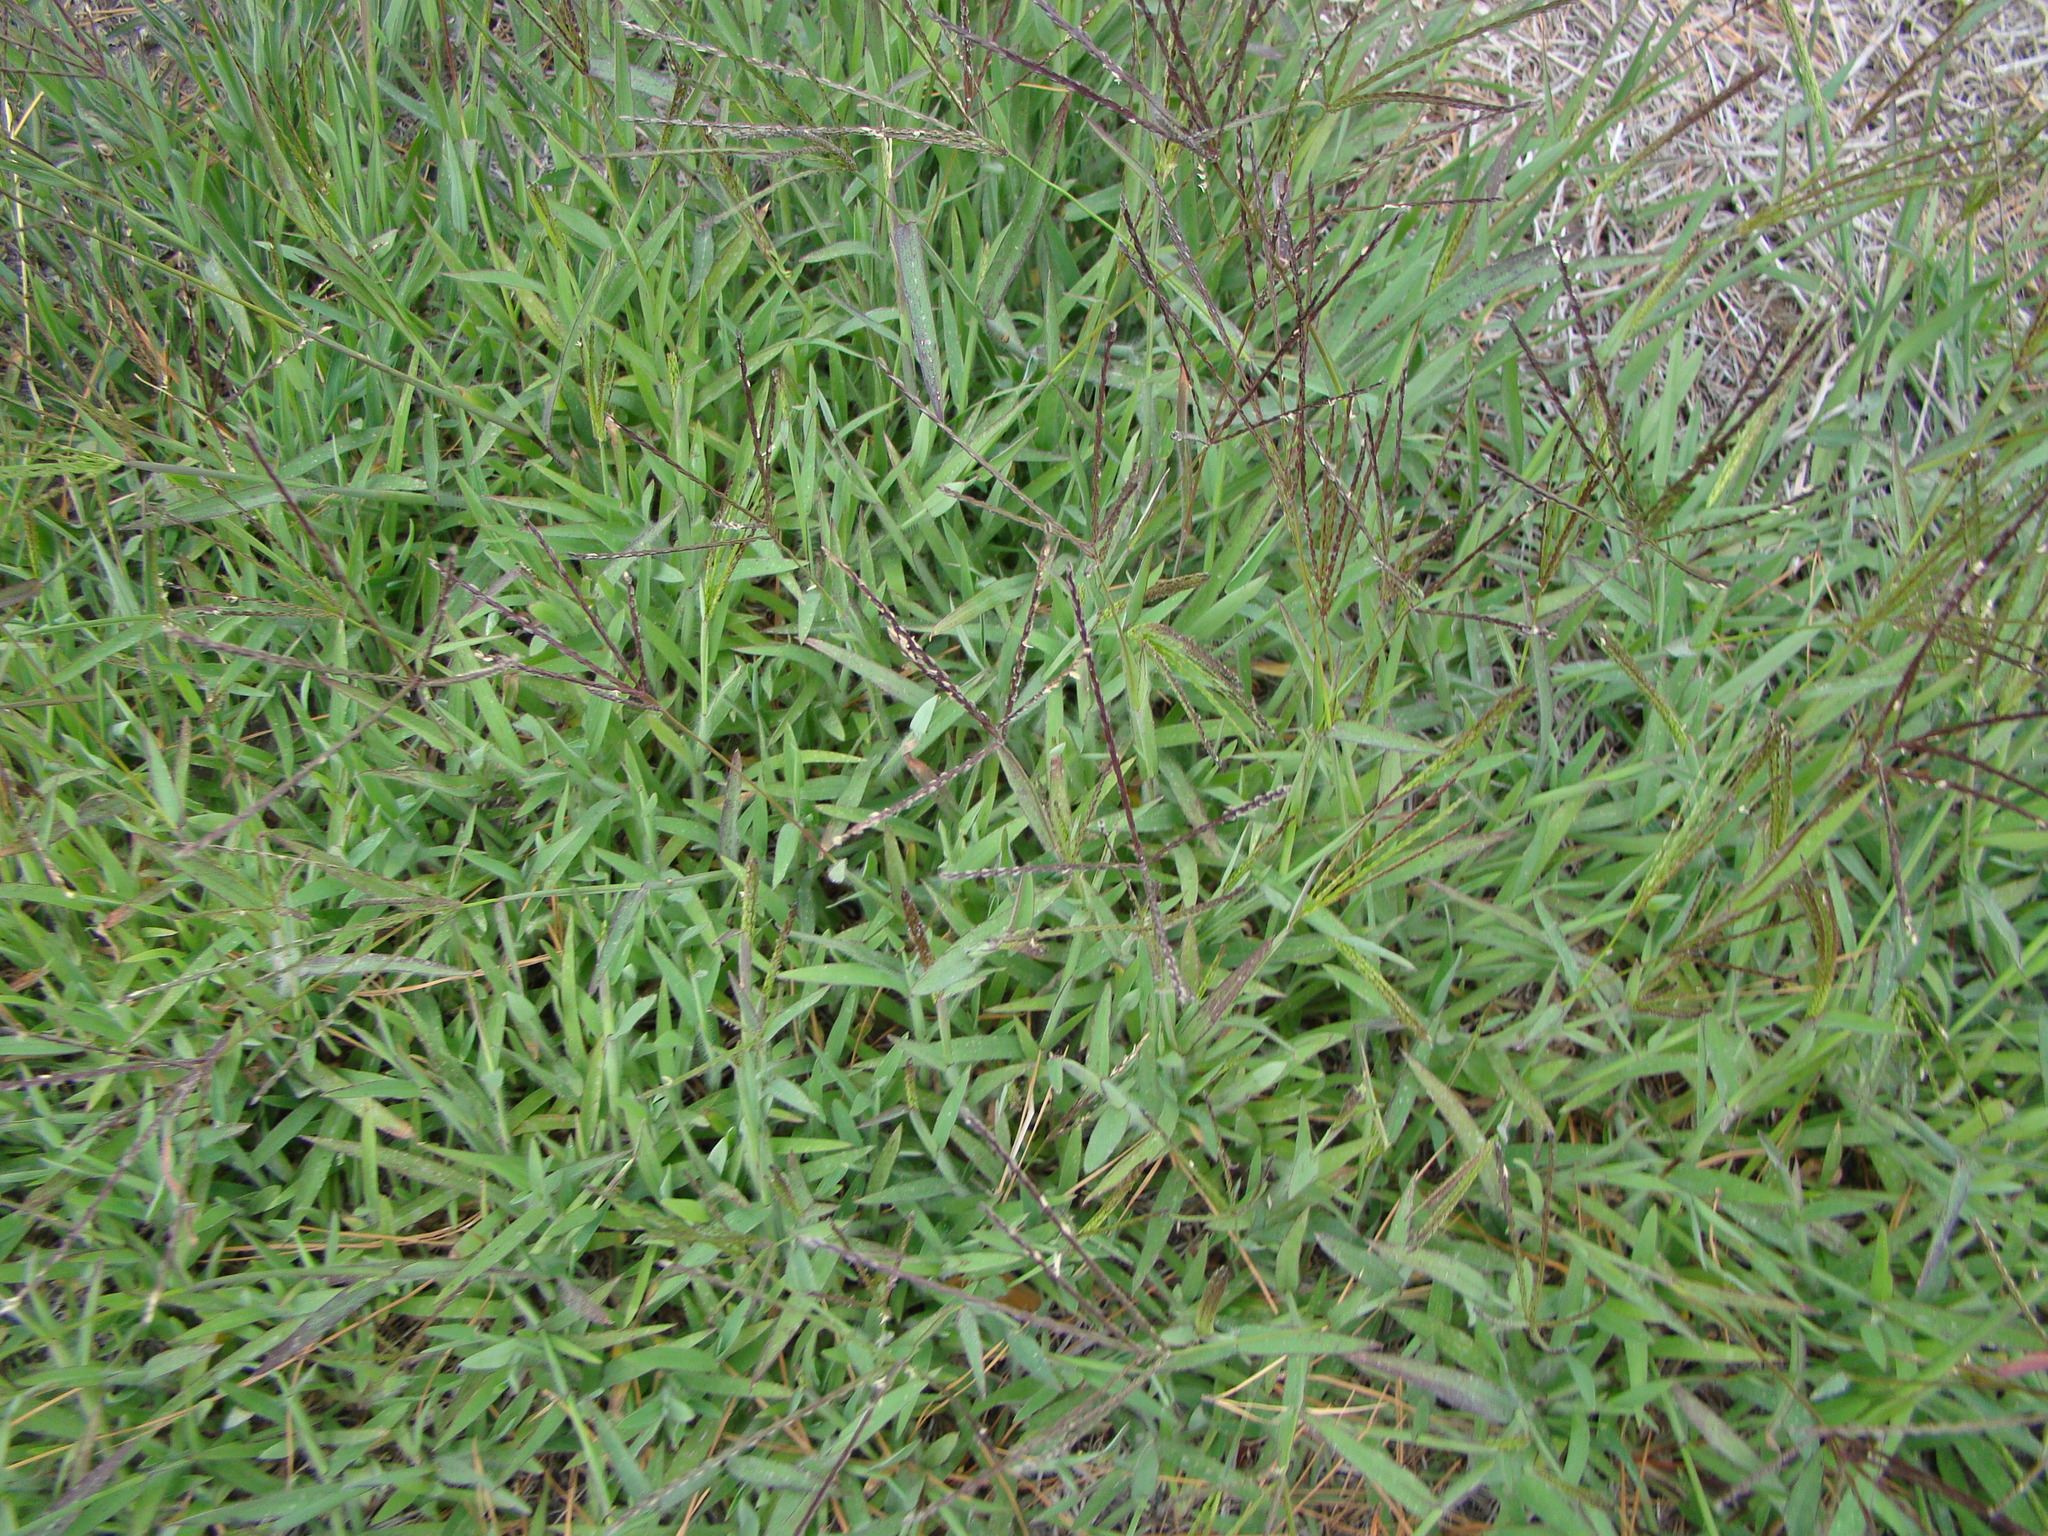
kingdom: Plantae
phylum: Tracheophyta
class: Liliopsida
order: Poales
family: Poaceae
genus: Digitaria
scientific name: Digitaria sanguinalis
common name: Hairy crabgrass
